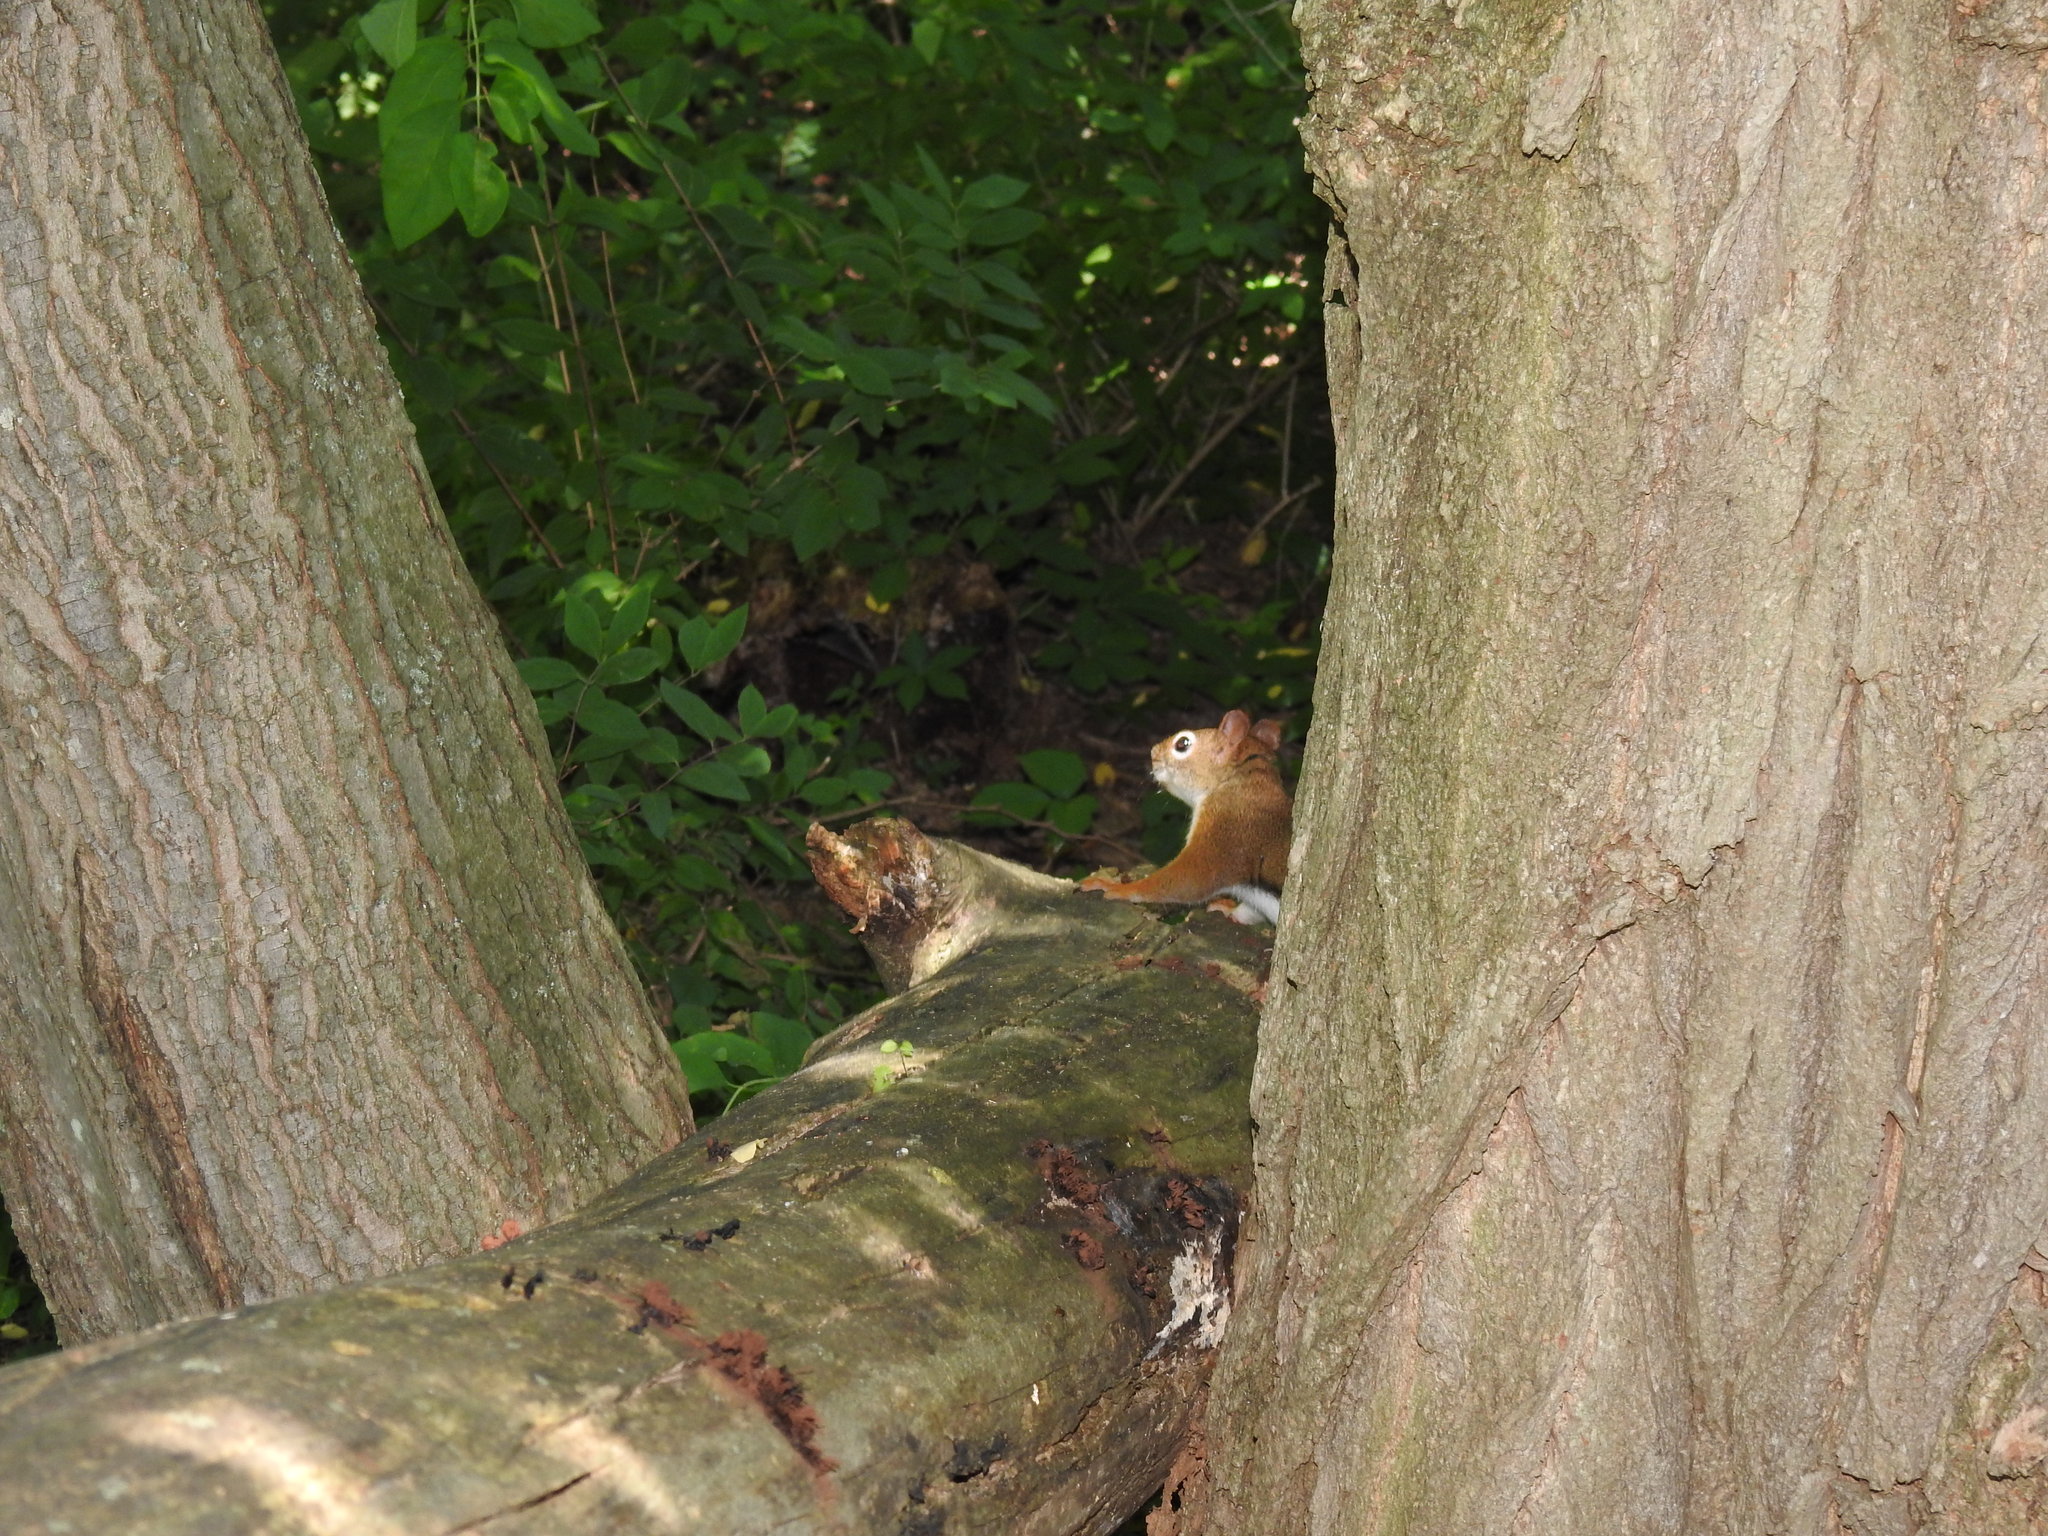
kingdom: Animalia
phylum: Chordata
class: Mammalia
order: Rodentia
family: Sciuridae
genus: Tamiasciurus
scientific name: Tamiasciurus hudsonicus
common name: Red squirrel
